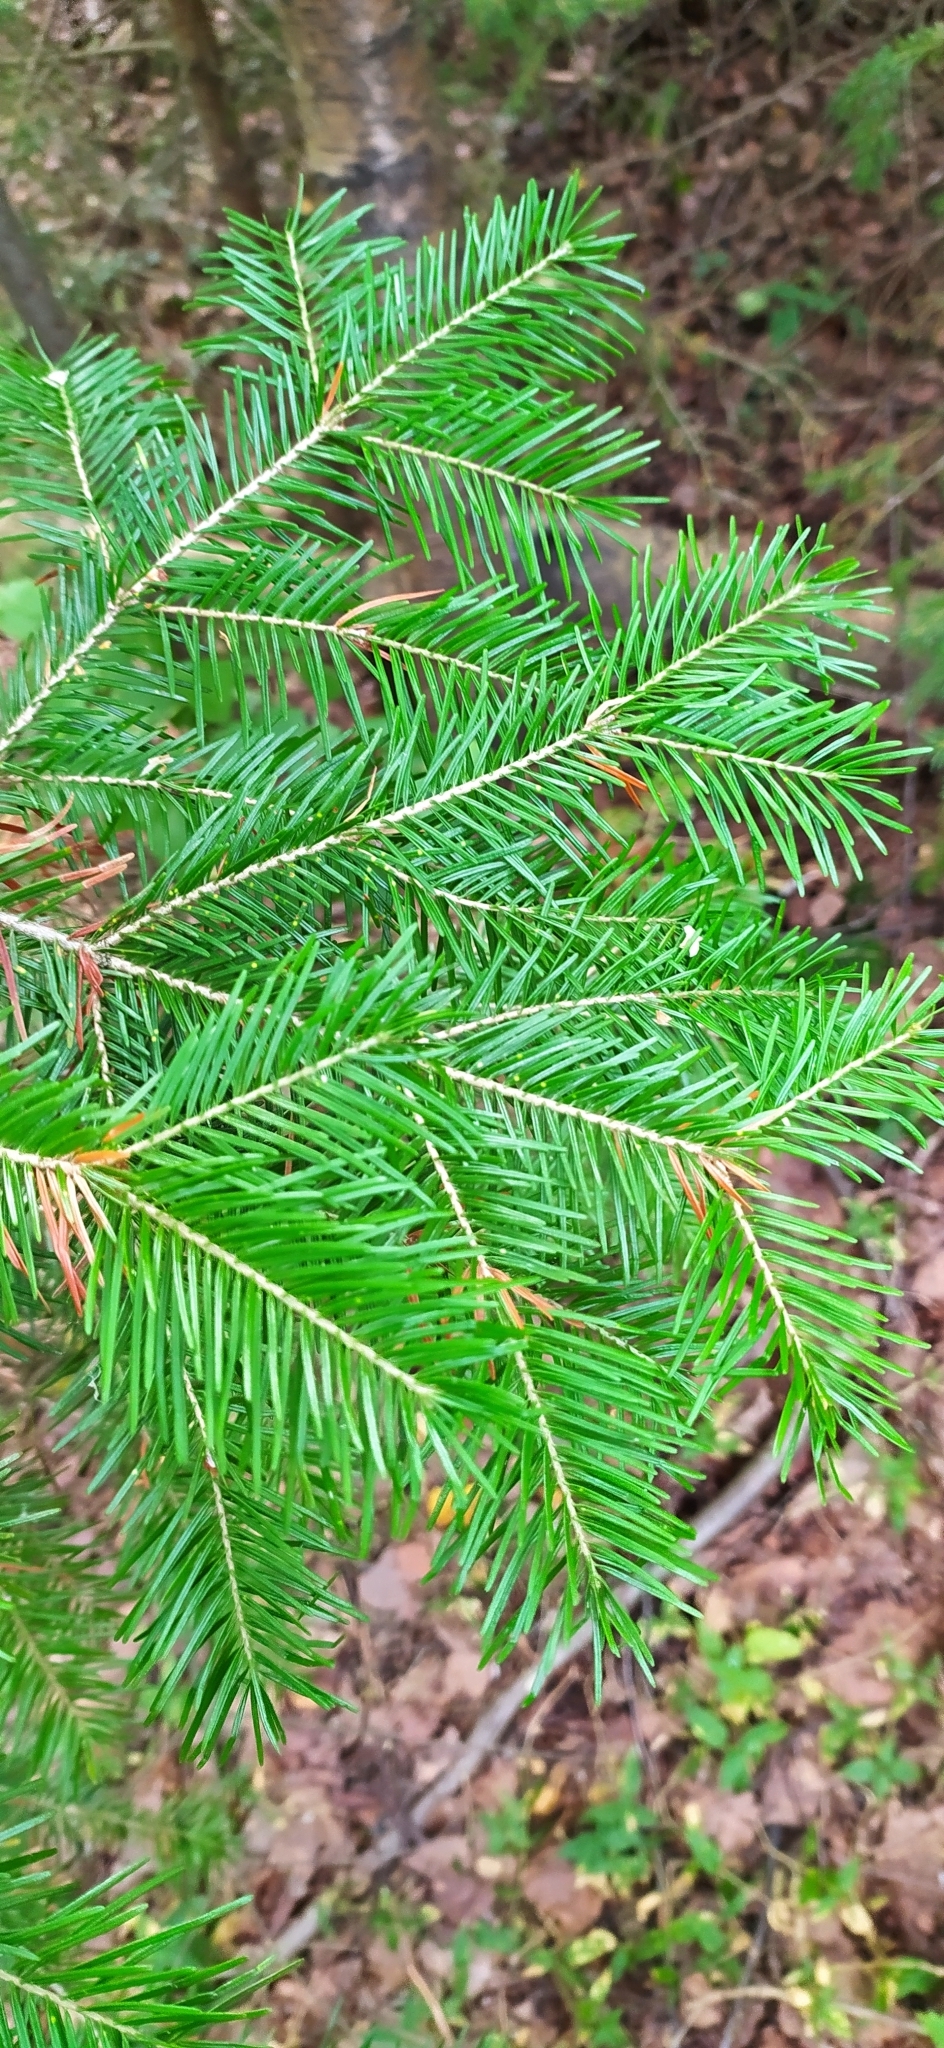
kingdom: Plantae
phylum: Tracheophyta
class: Pinopsida
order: Pinales
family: Pinaceae
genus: Abies
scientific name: Abies sibirica
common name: Siberian fir
